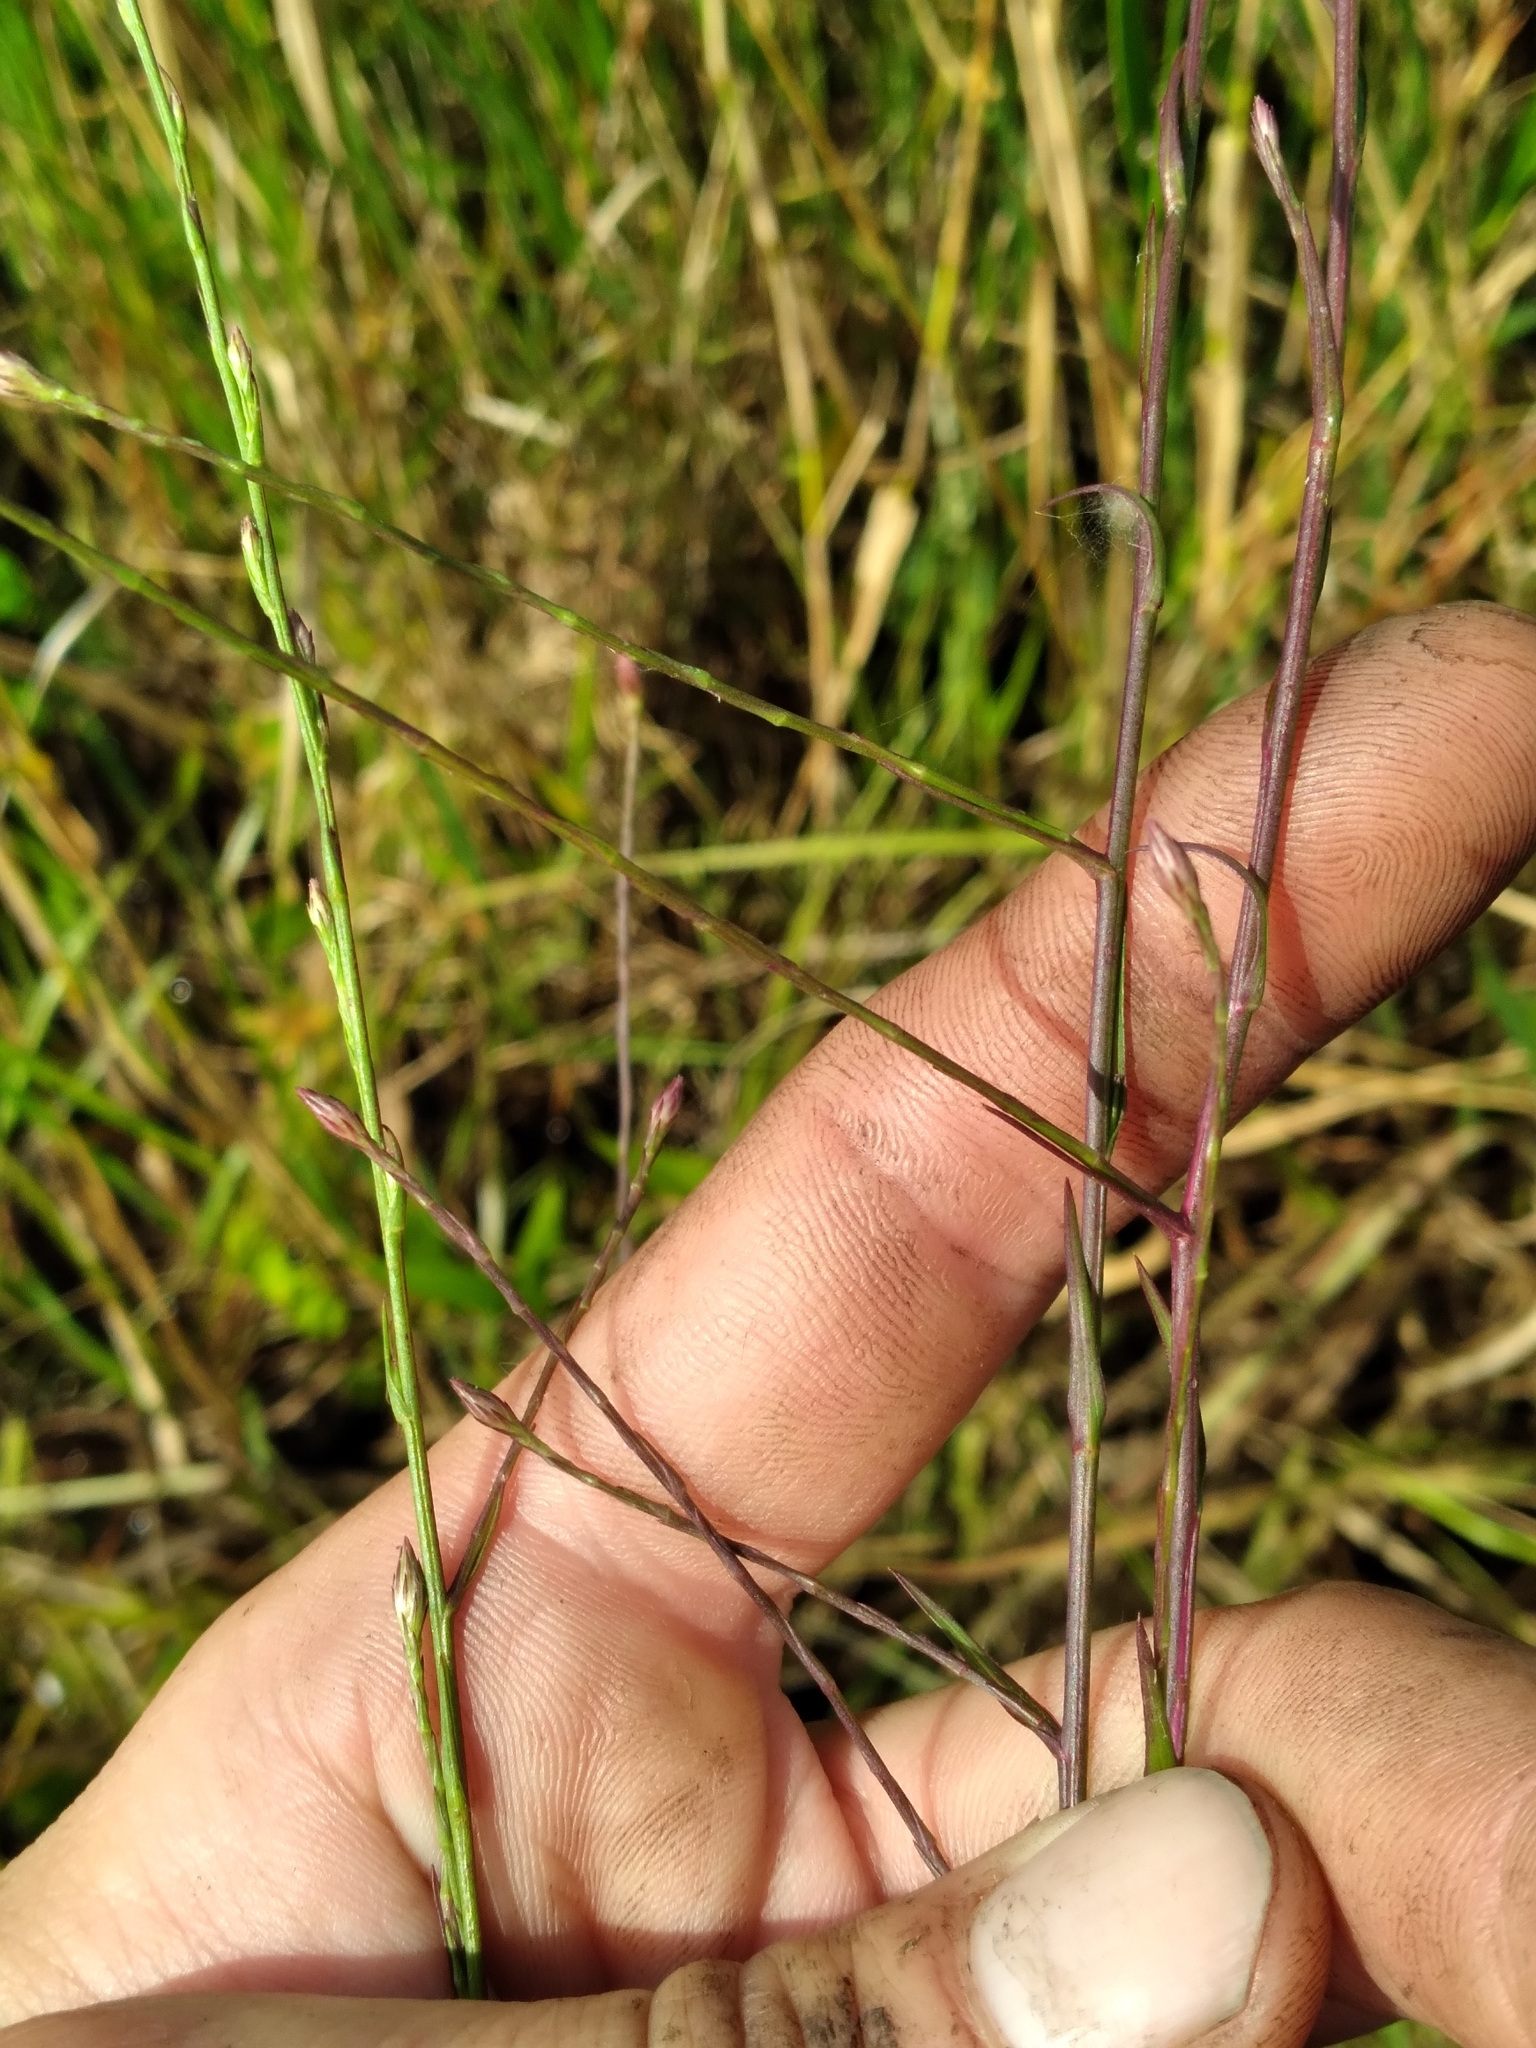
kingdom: Plantae
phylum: Tracheophyta
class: Magnoliopsida
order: Asterales
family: Asteraceae
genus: Symphyotrichum
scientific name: Symphyotrichum subulatum
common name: Annual saltmarsh aster
